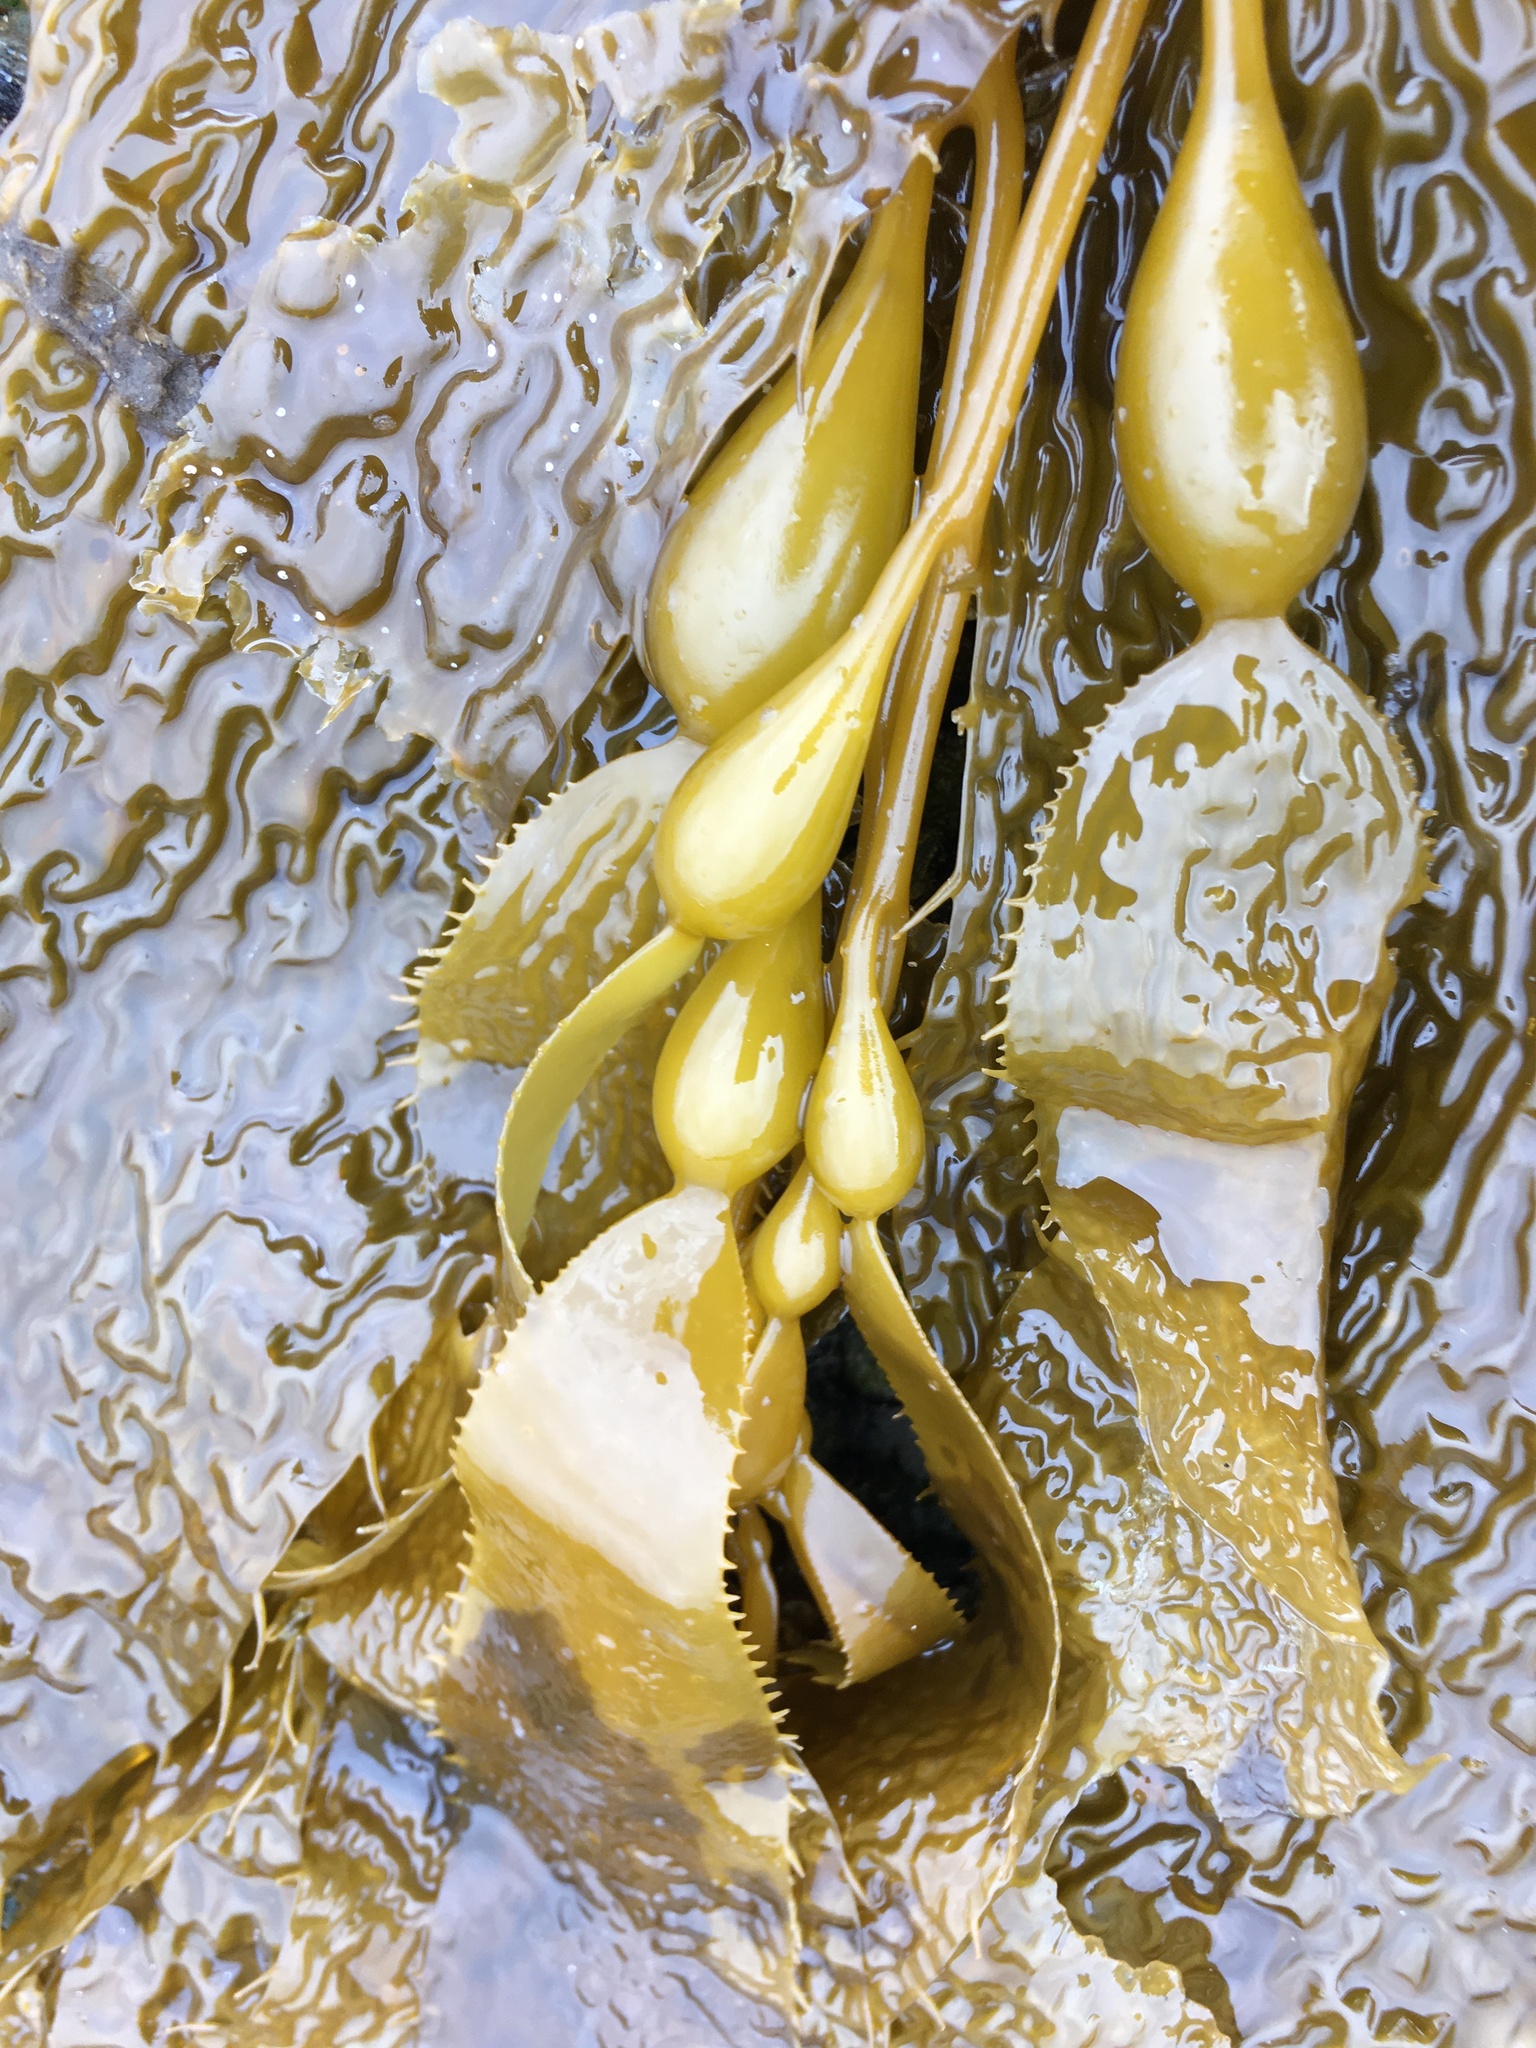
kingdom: Chromista
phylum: Ochrophyta
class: Phaeophyceae
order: Laminariales
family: Laminariaceae
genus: Macrocystis
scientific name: Macrocystis pyrifera
